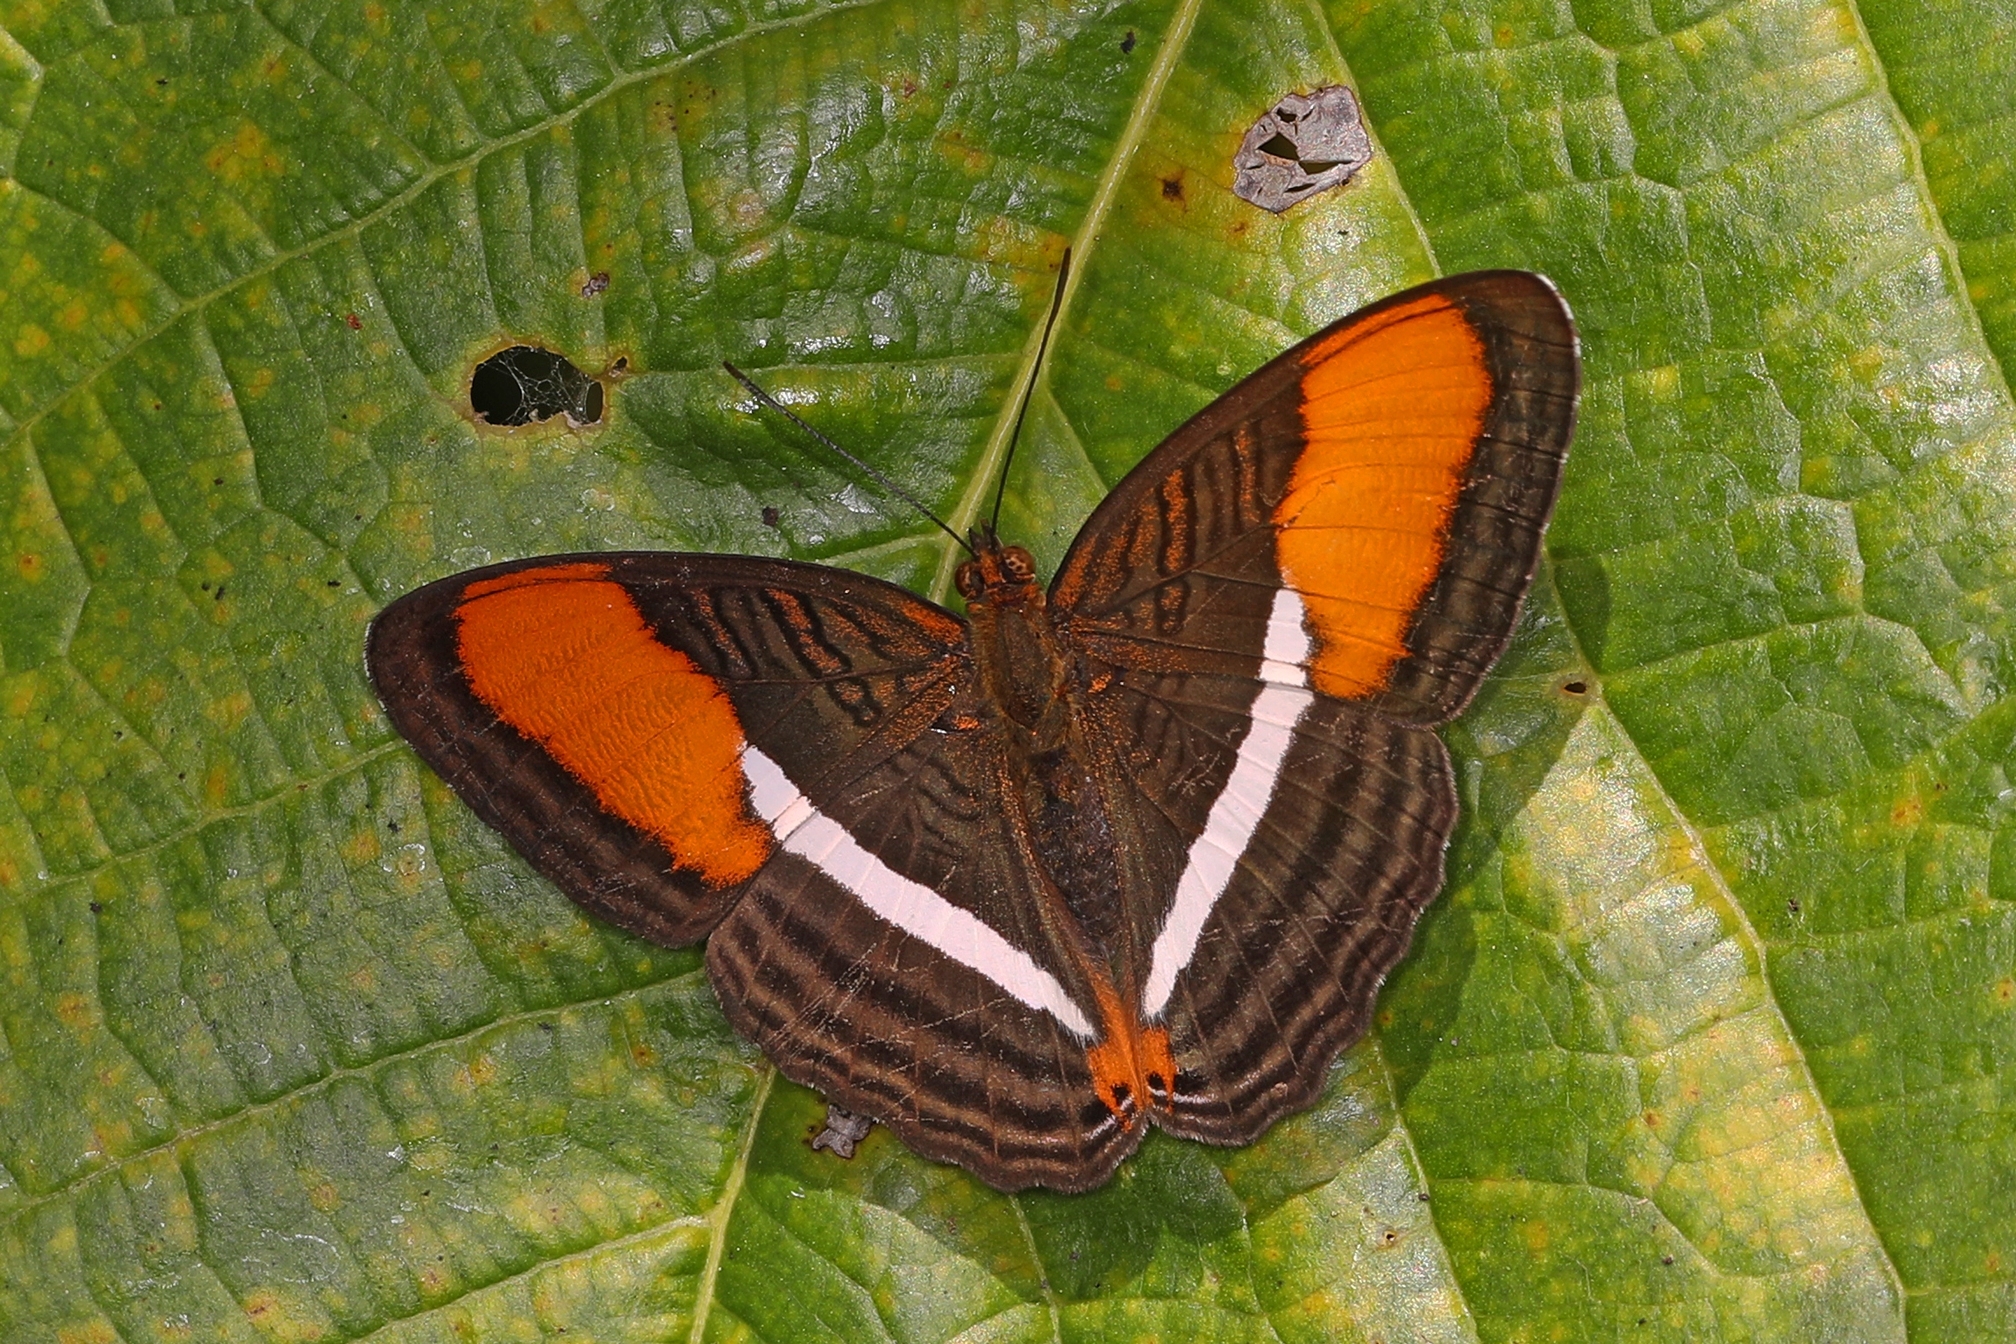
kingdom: Animalia
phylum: Arthropoda
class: Insecta
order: Lepidoptera
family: Nymphalidae
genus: Limenitis
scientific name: Limenitis cytherea
